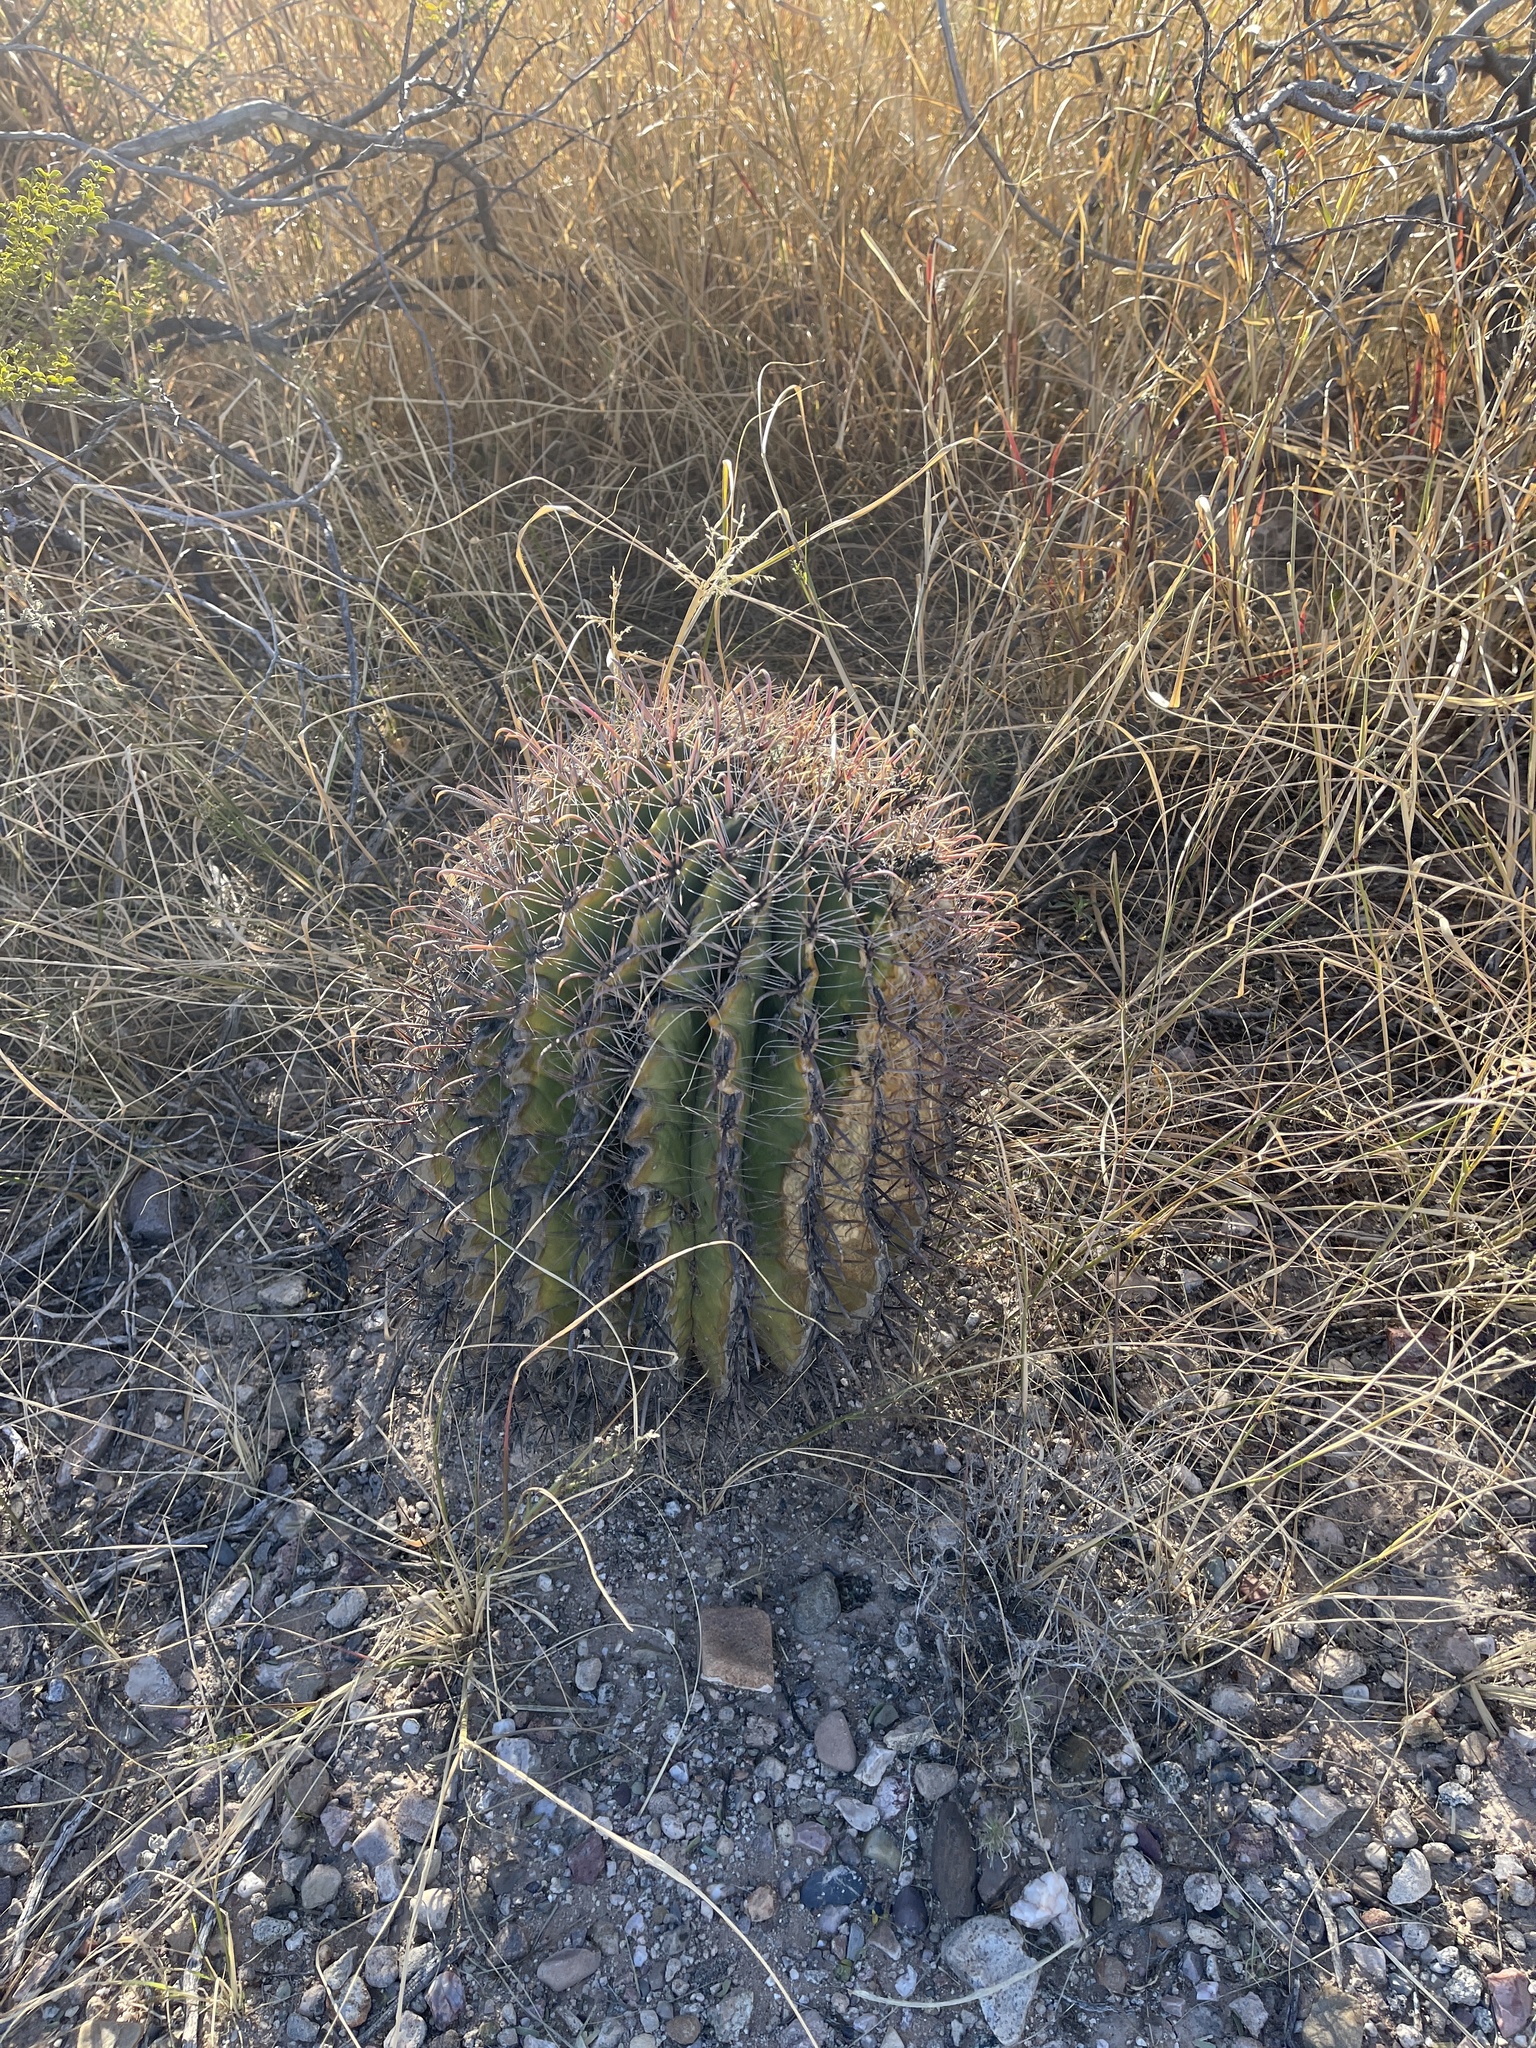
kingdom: Plantae
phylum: Tracheophyta
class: Magnoliopsida
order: Caryophyllales
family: Cactaceae
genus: Ferocactus
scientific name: Ferocactus wislizeni
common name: Candy barrel cactus
